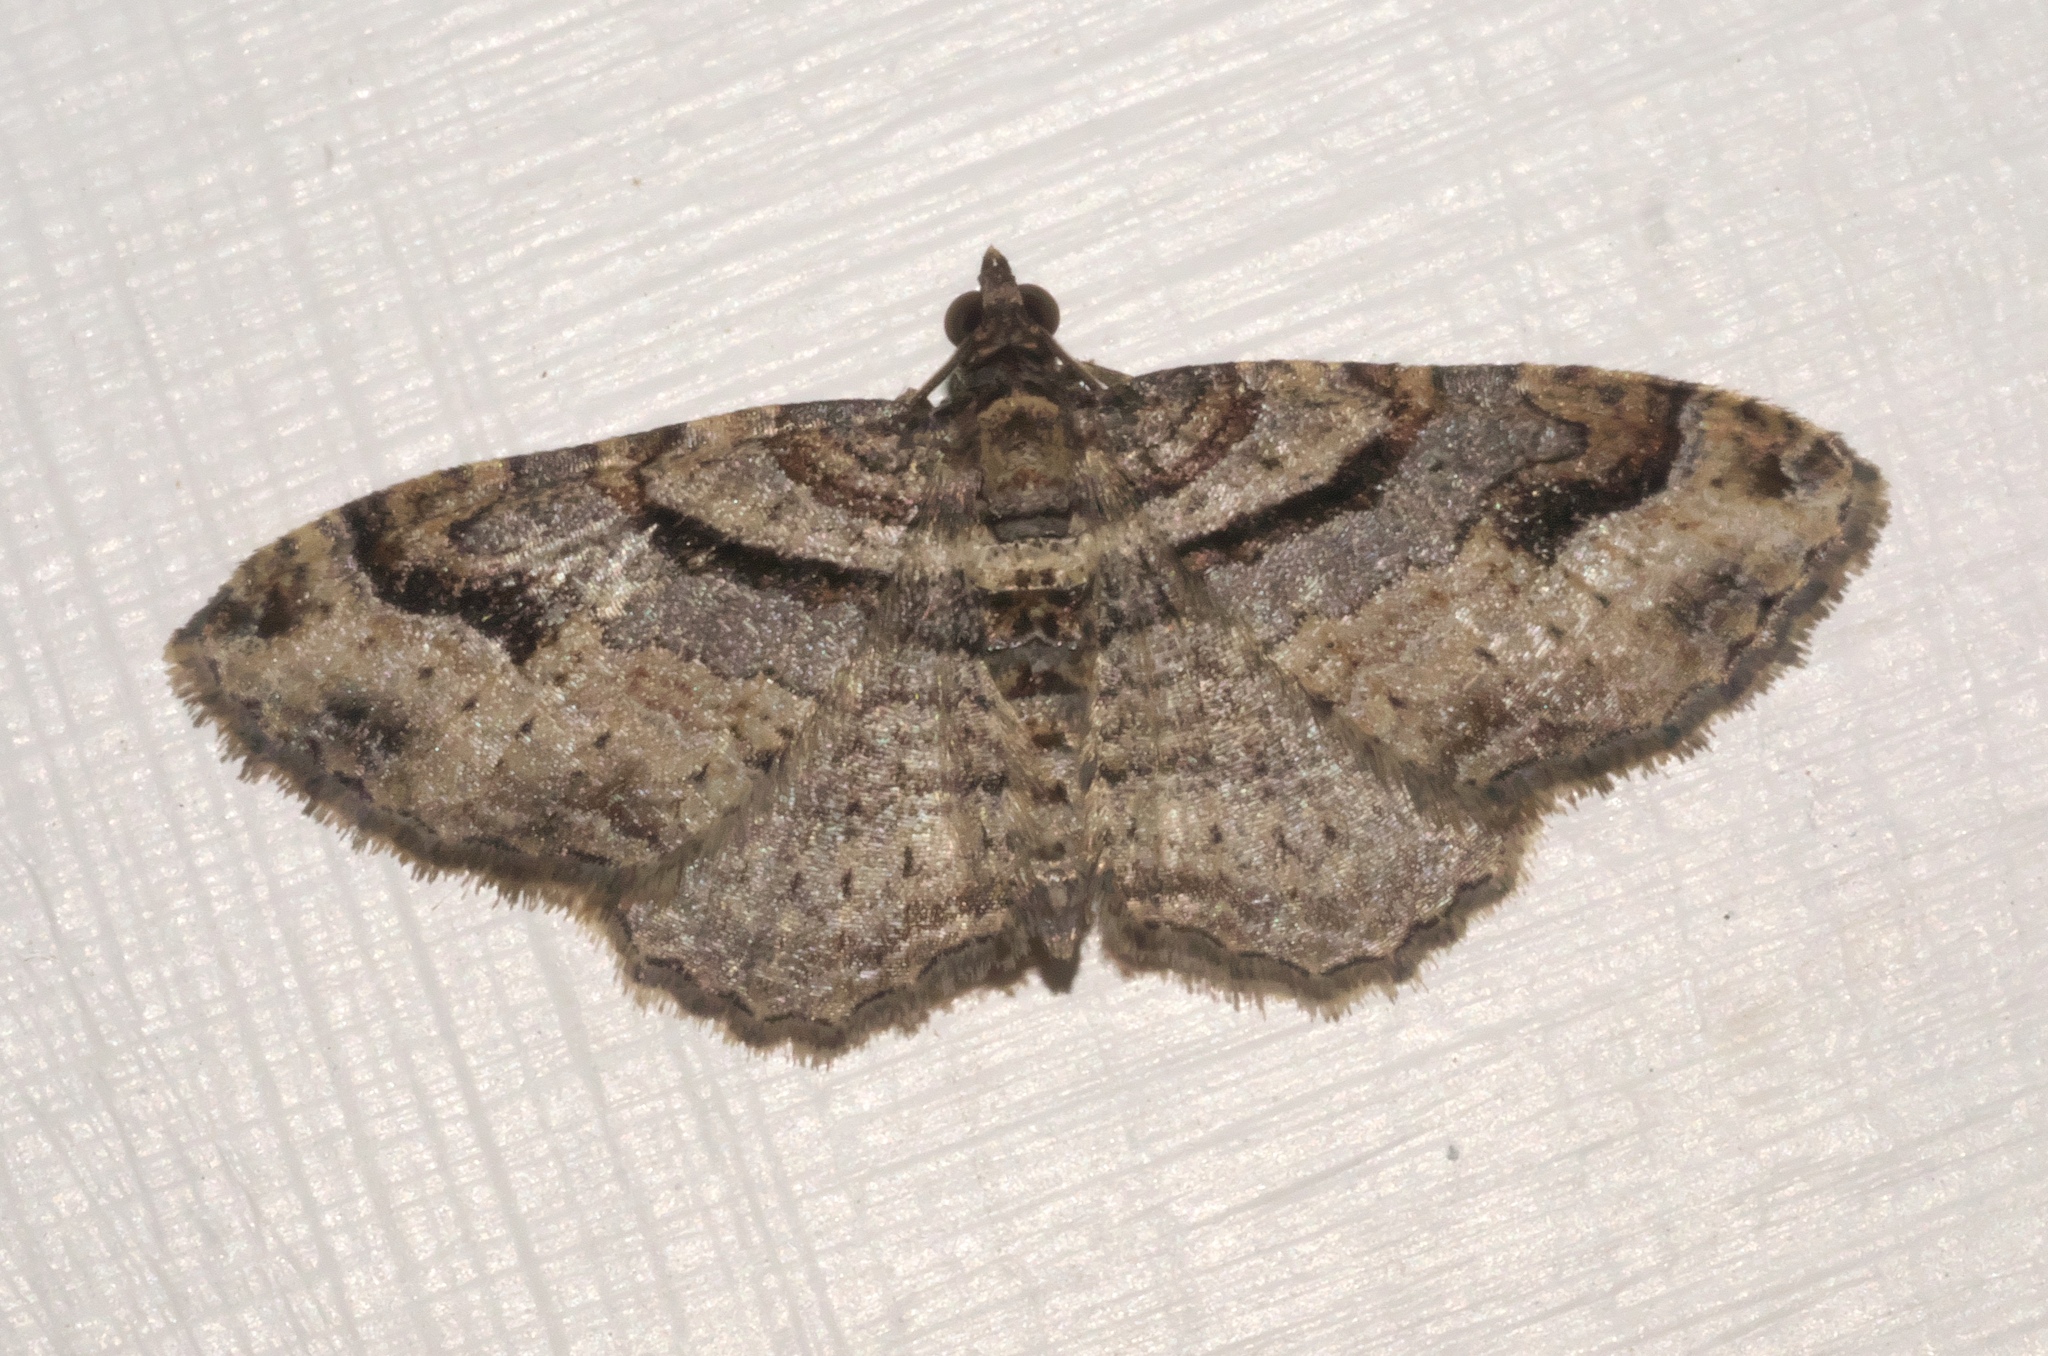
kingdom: Animalia
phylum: Arthropoda
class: Insecta
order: Lepidoptera
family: Geometridae
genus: Costaconvexa
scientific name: Costaconvexa centrostrigaria
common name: Bent-line carpet
